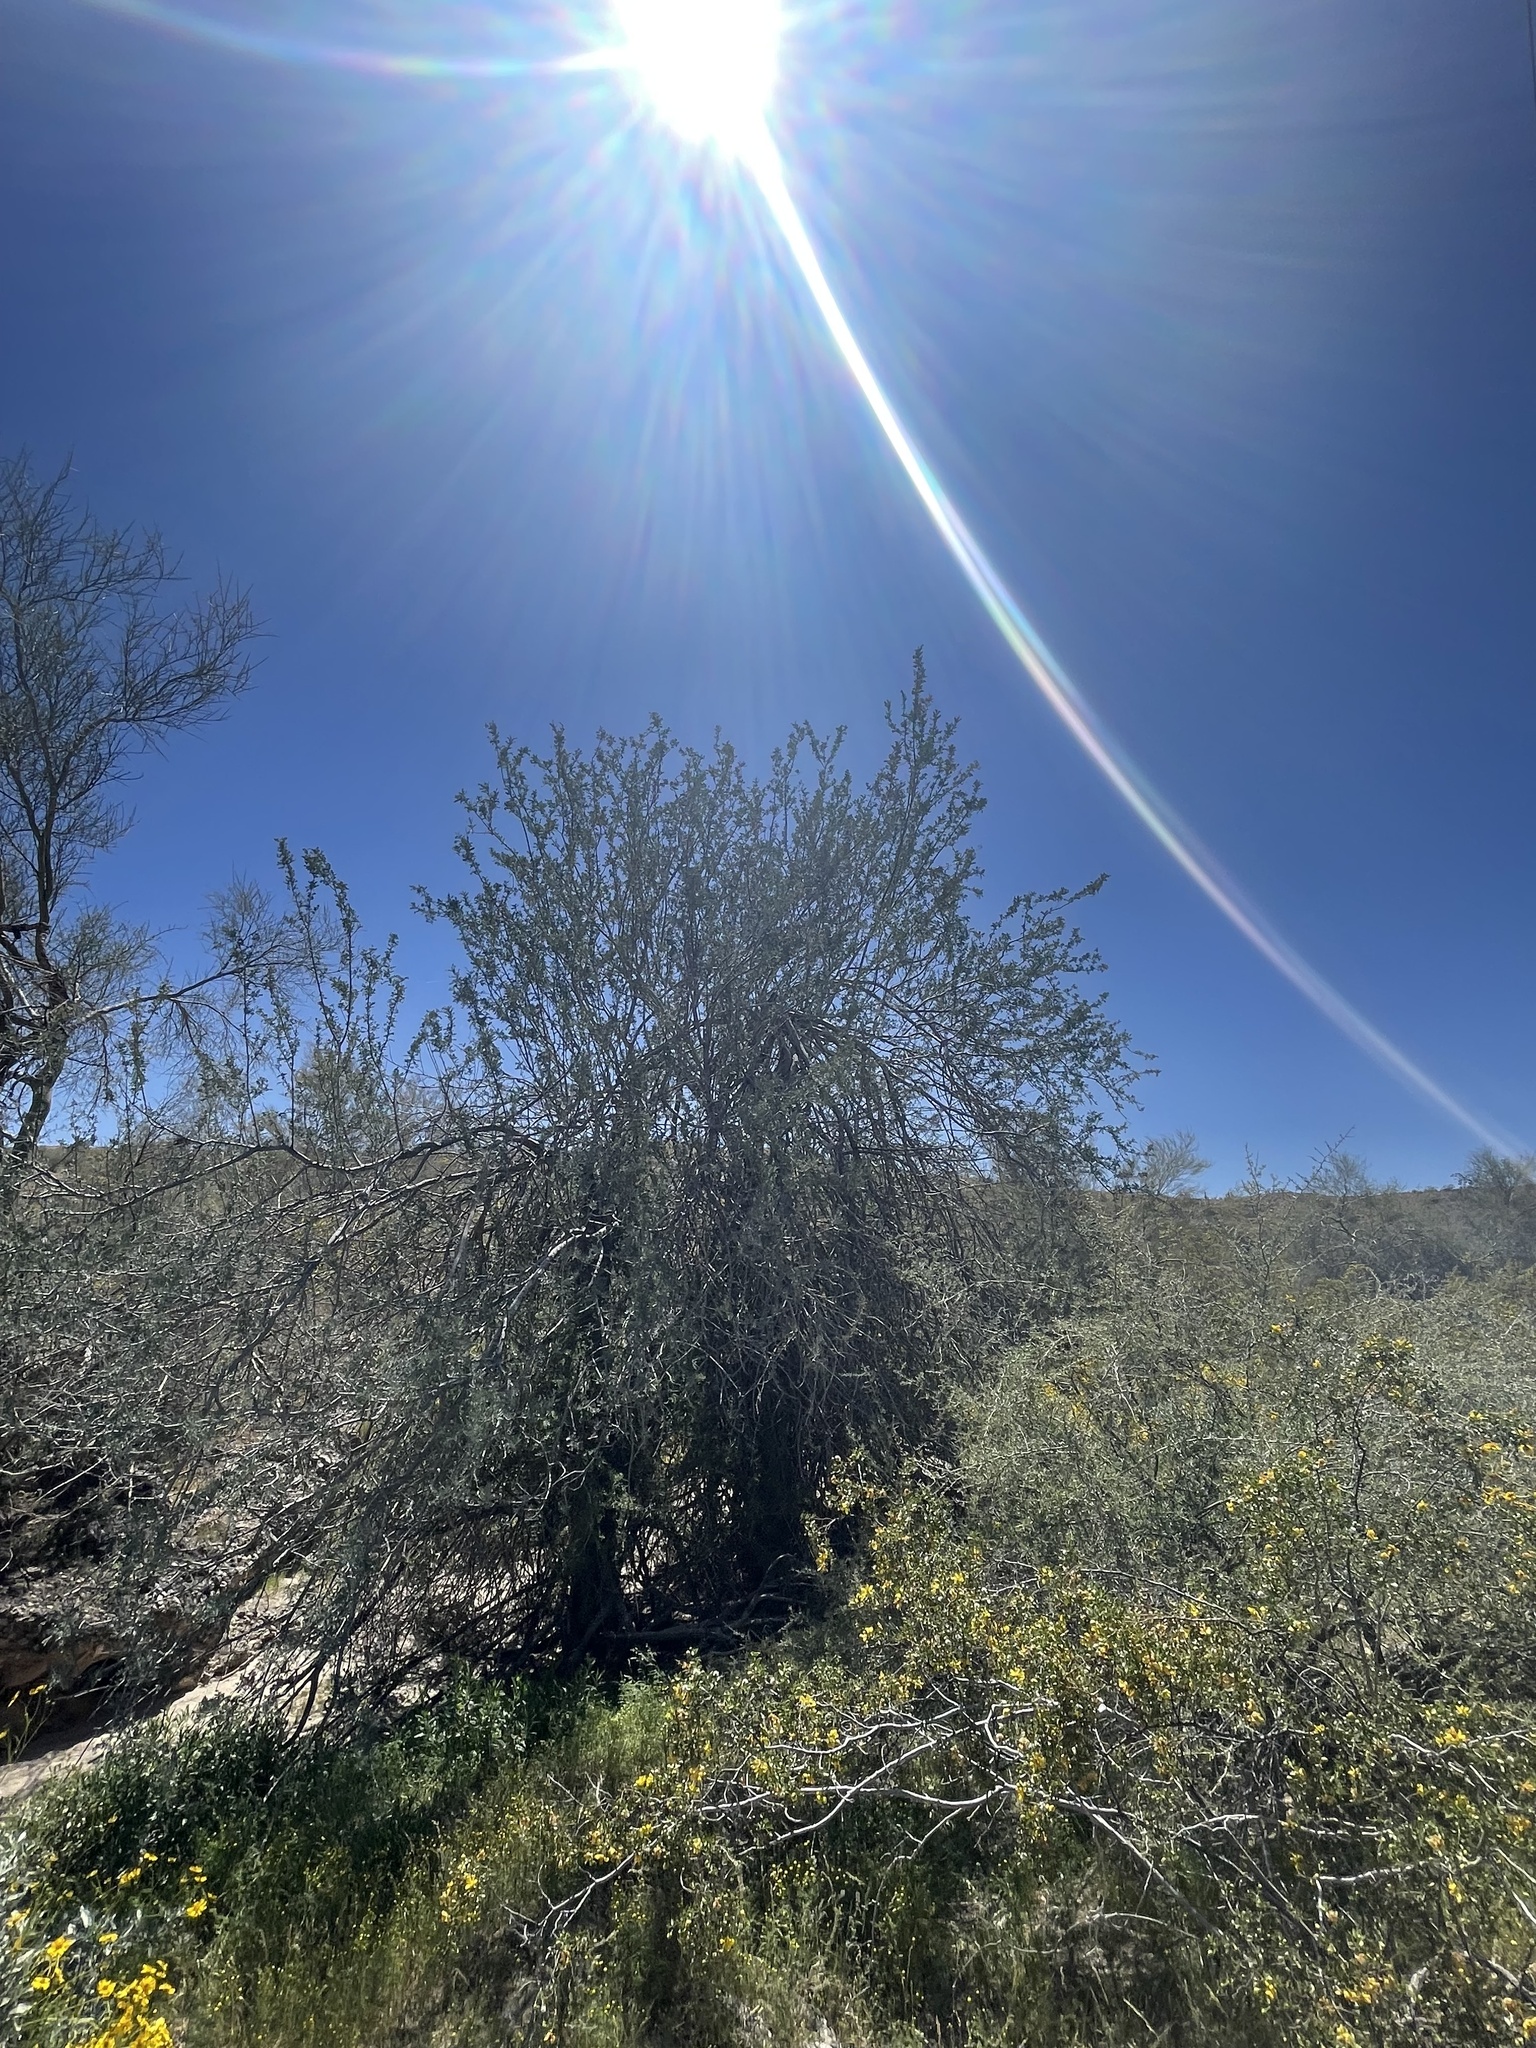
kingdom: Plantae
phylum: Tracheophyta
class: Magnoliopsida
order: Fabales
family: Fabaceae
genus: Olneya
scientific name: Olneya tesota
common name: Desert ironwood
